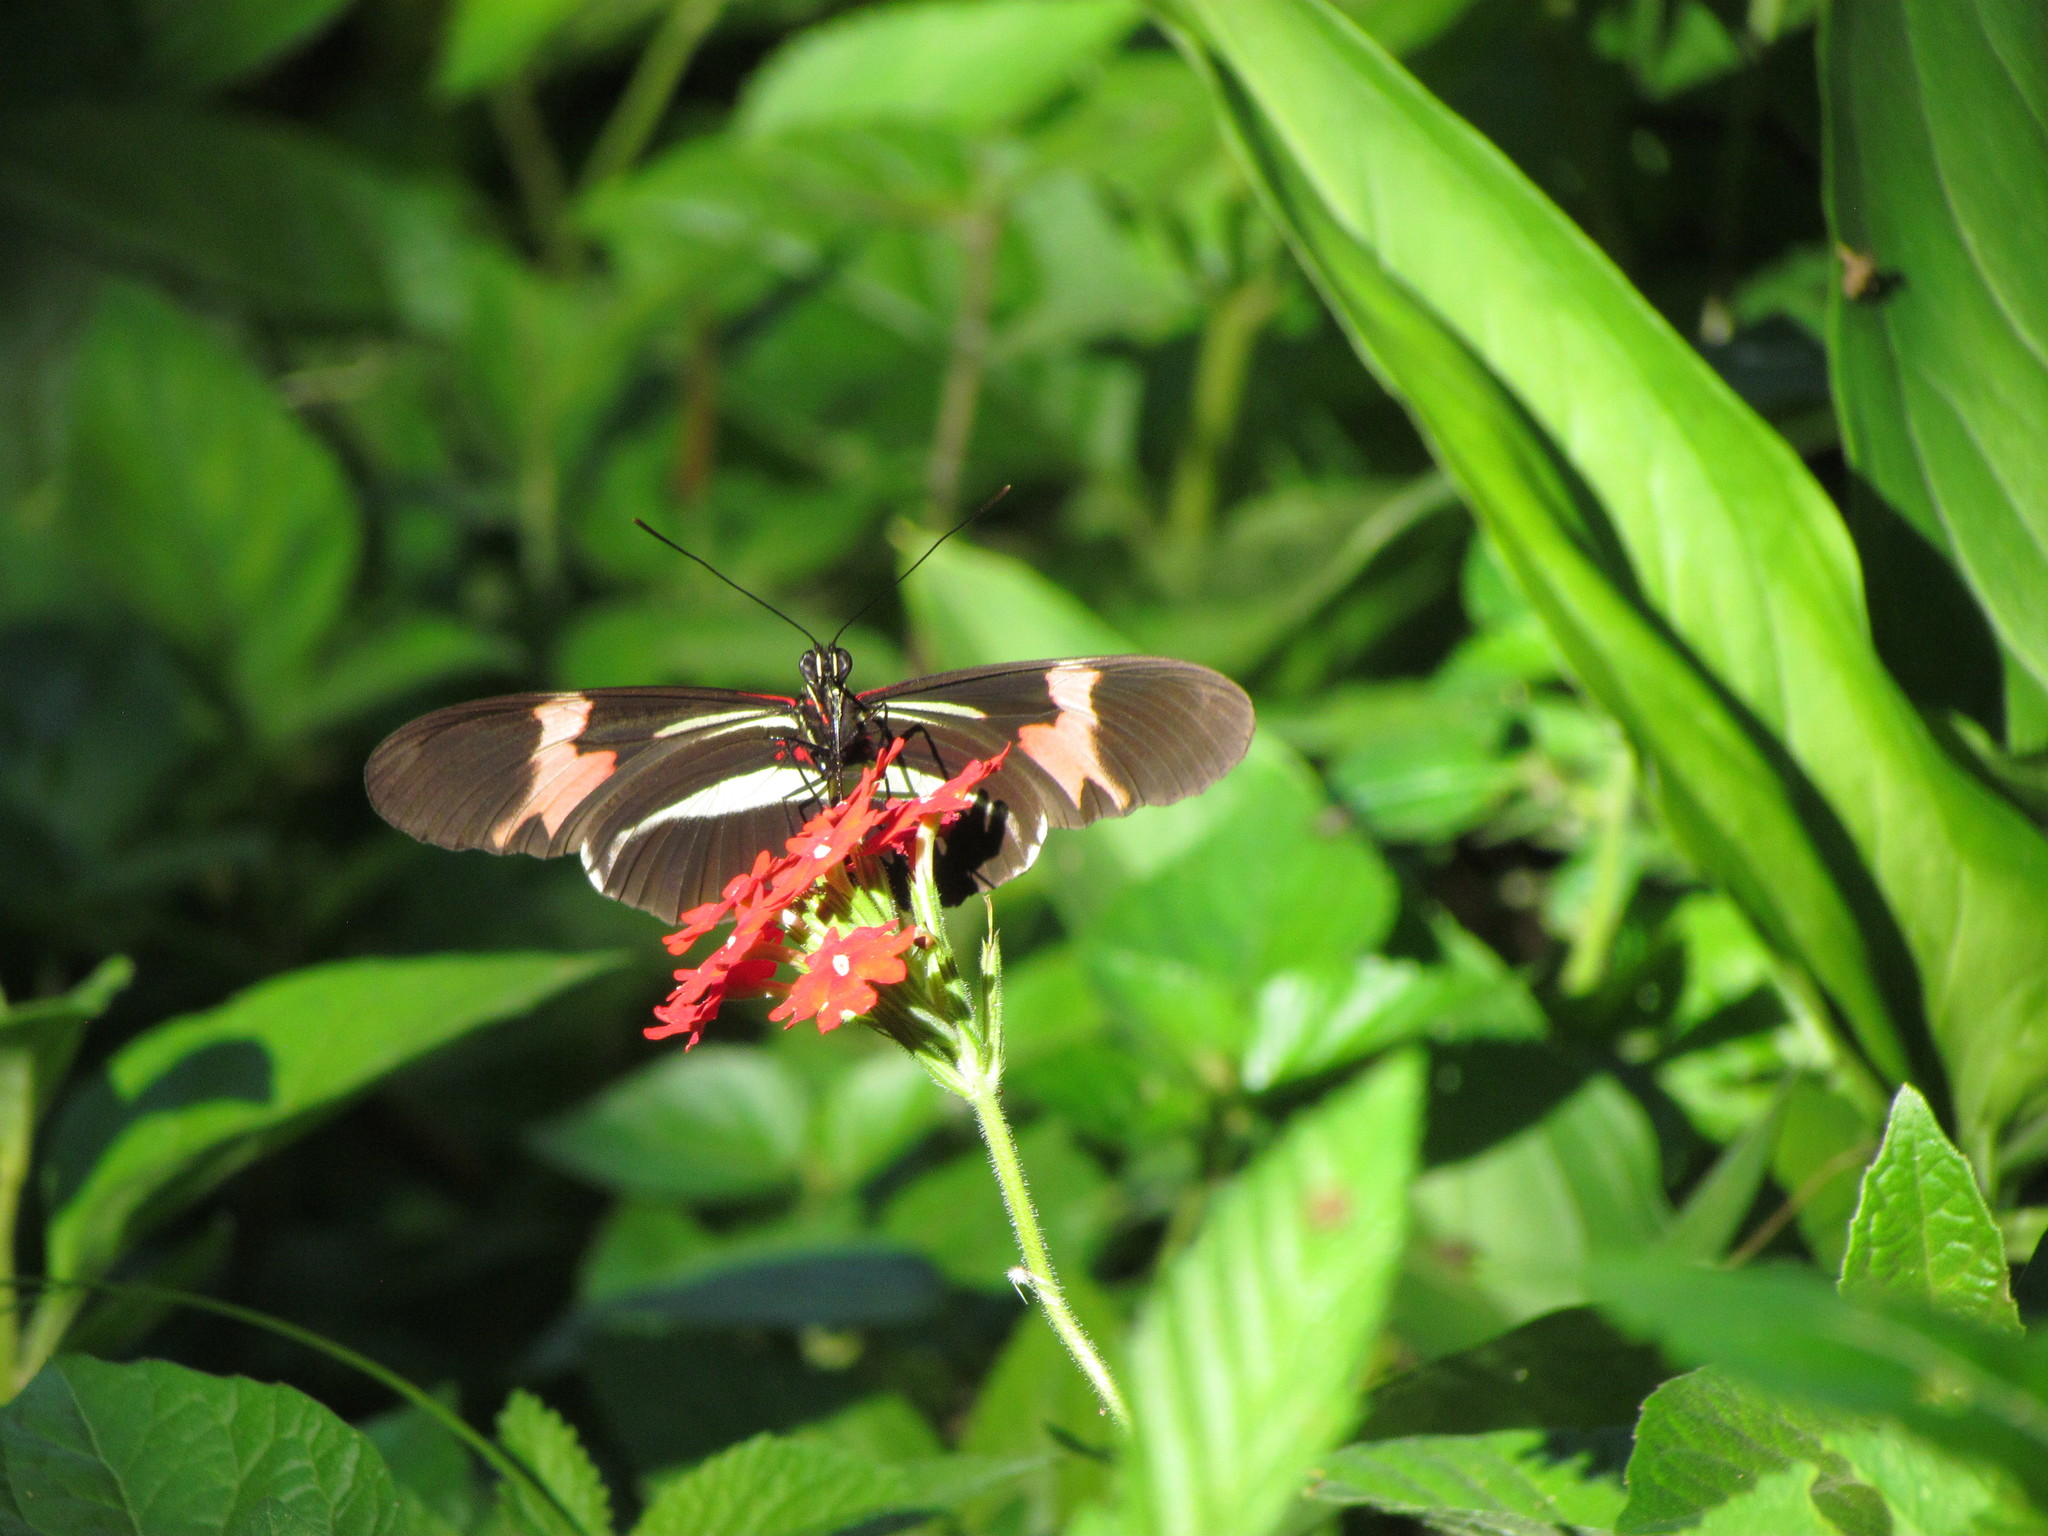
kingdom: Animalia
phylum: Arthropoda
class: Insecta
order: Lepidoptera
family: Nymphalidae
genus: Heliconius
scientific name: Heliconius erato
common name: Common patch longwing
